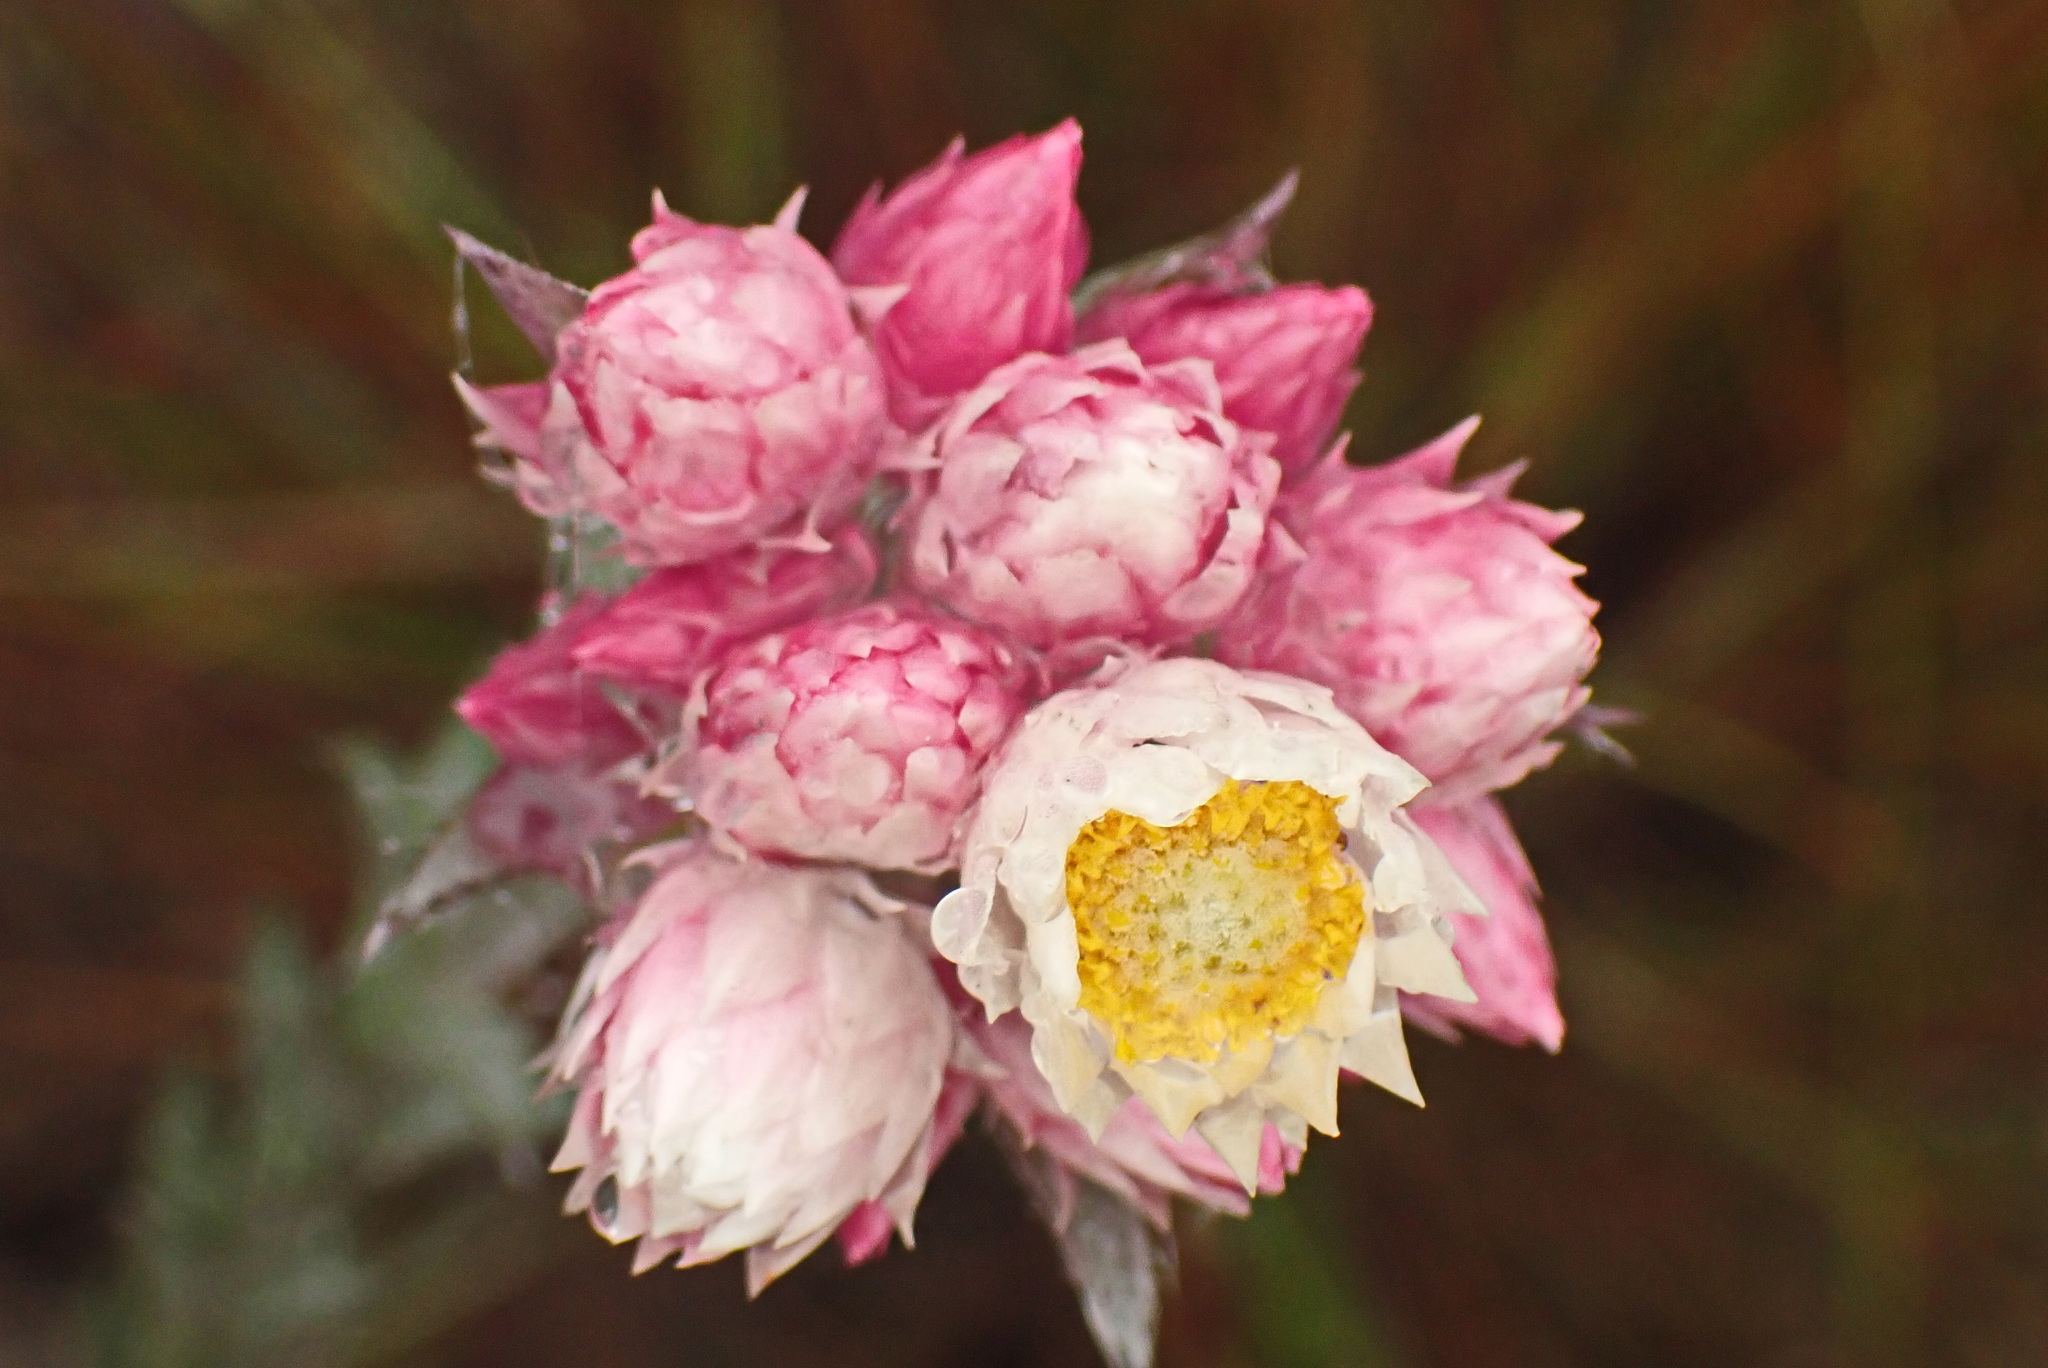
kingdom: Plantae
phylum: Tracheophyta
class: Magnoliopsida
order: Asterales
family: Asteraceae
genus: Achyranthemum
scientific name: Achyranthemum paniculatum
